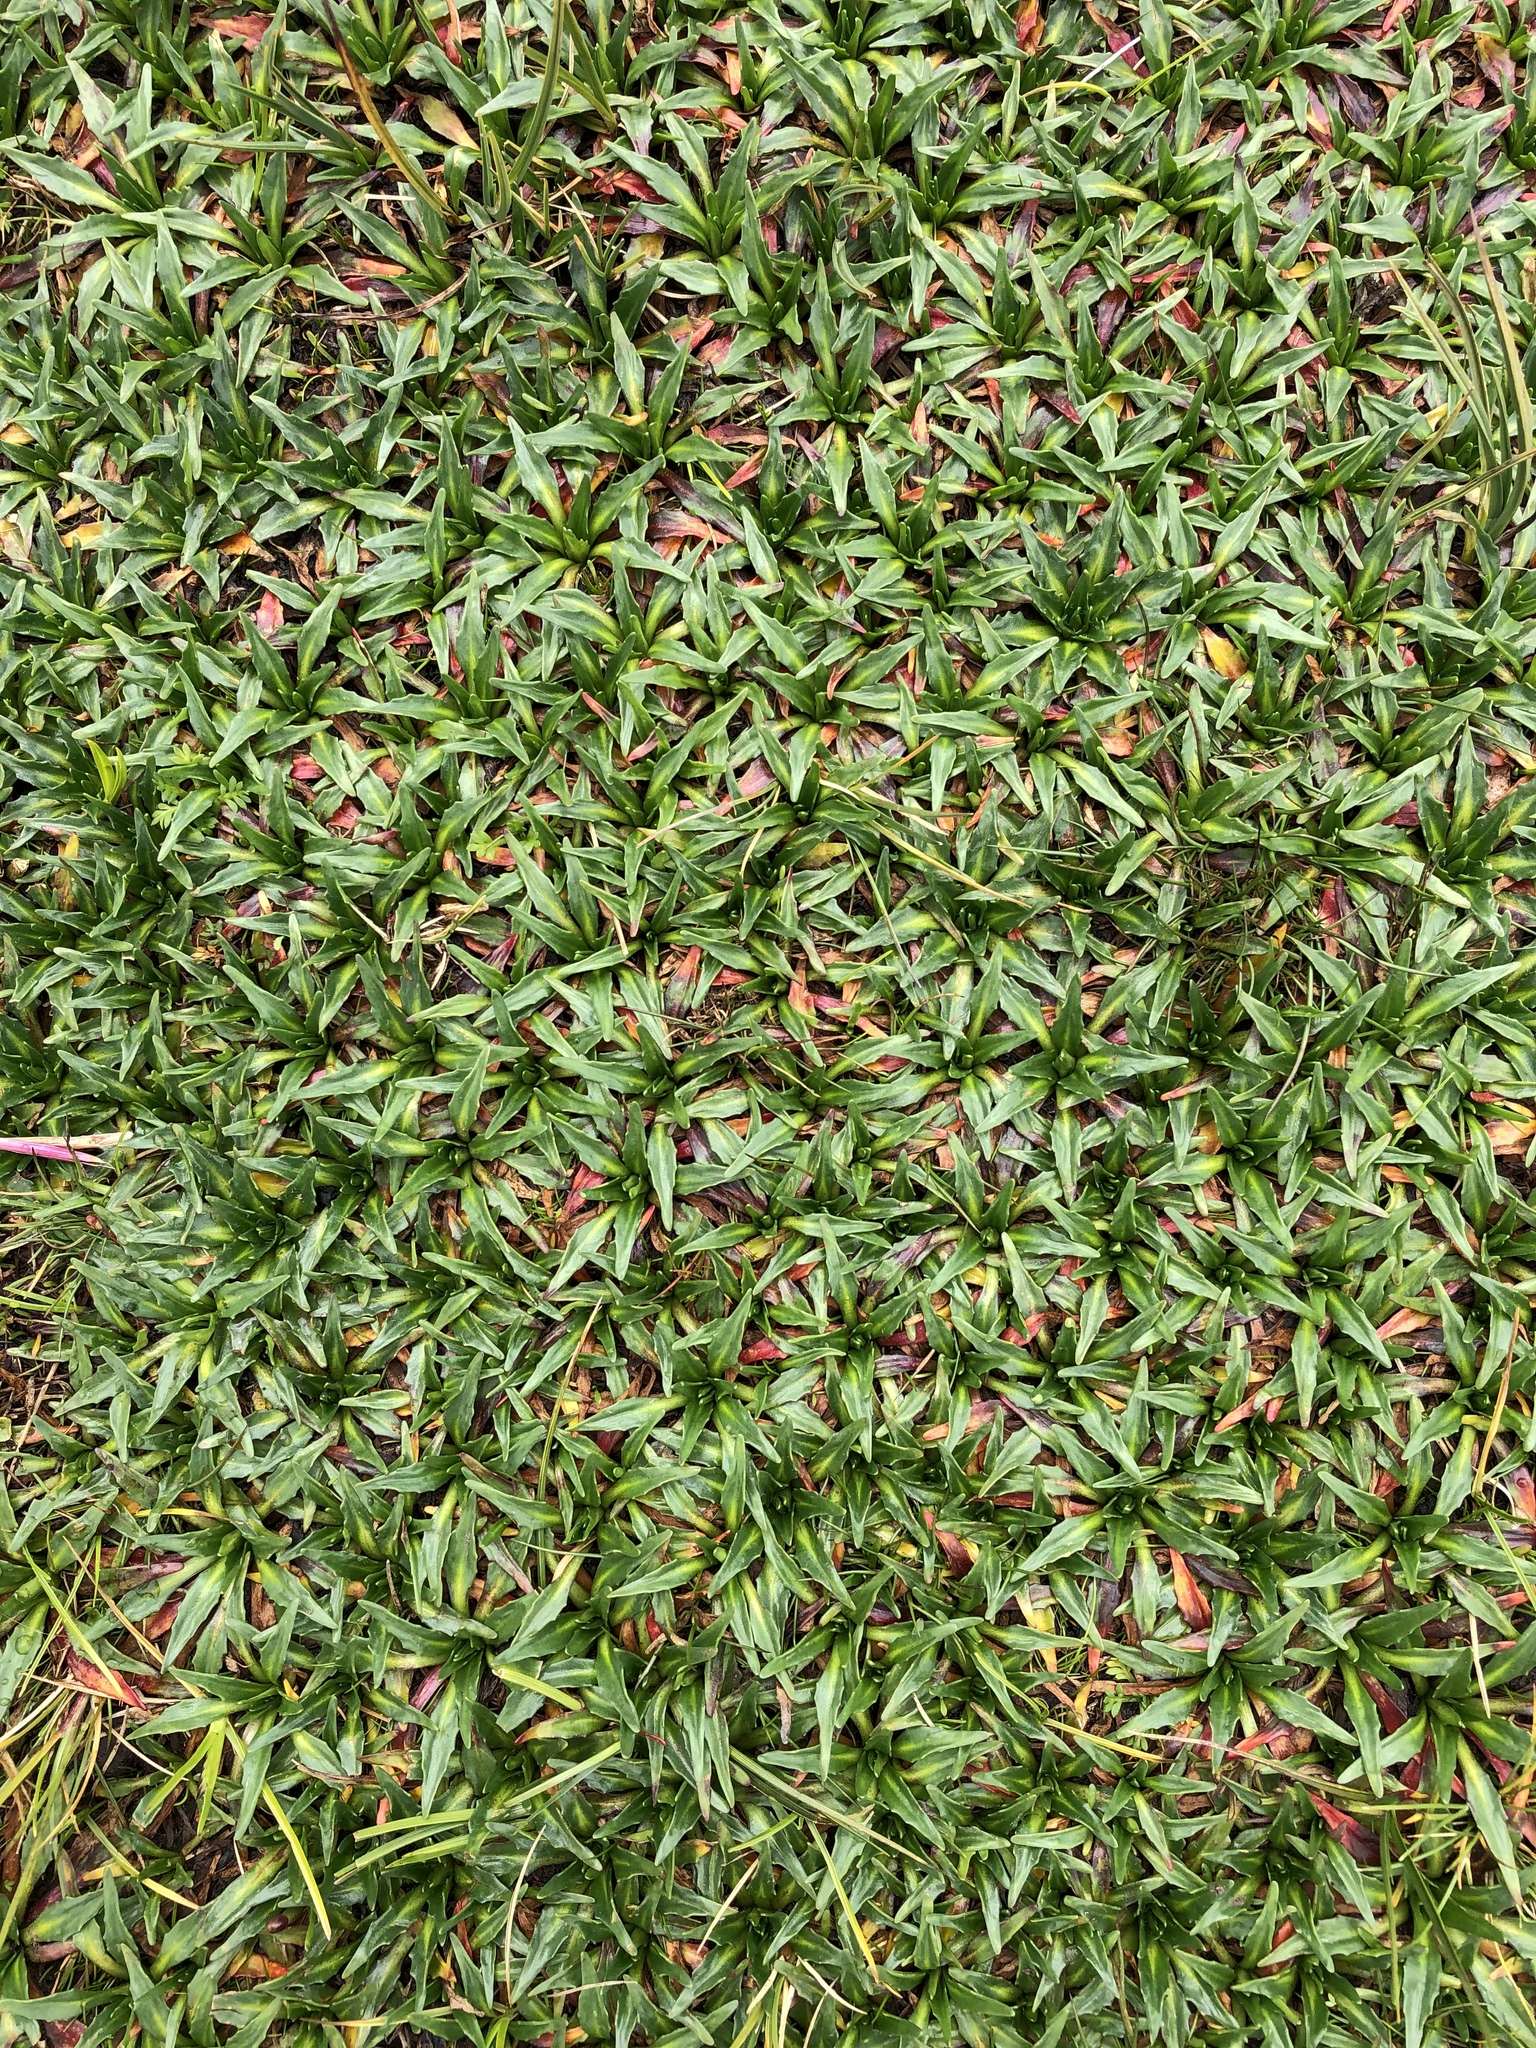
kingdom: Plantae
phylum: Tracheophyta
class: Magnoliopsida
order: Lamiales
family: Plantaginaceae
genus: Plantago
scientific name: Plantago tubulosa
